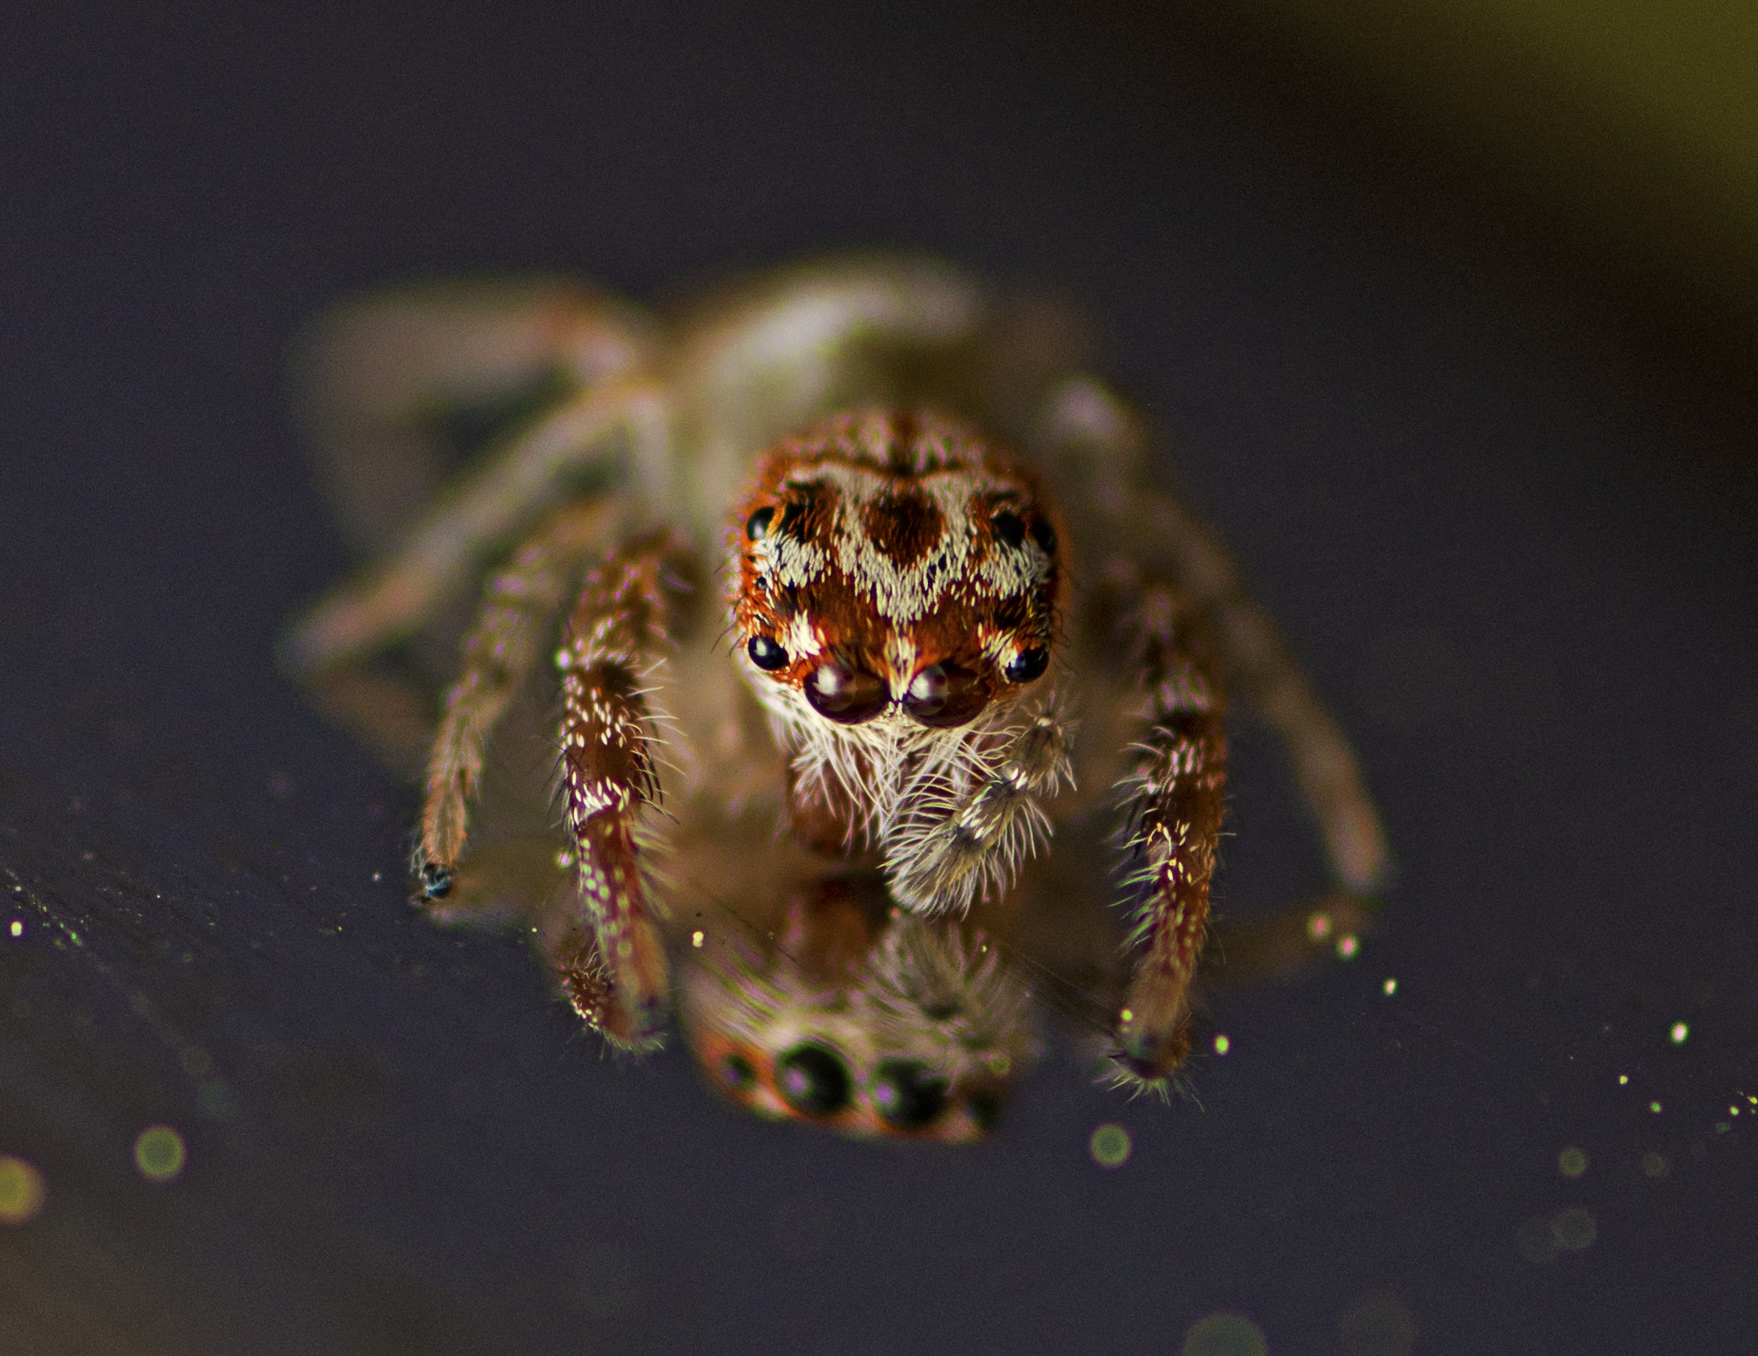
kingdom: Animalia
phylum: Arthropoda
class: Arachnida
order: Araneae
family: Salticidae
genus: Opisthoncus
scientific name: Opisthoncus alborufescens
